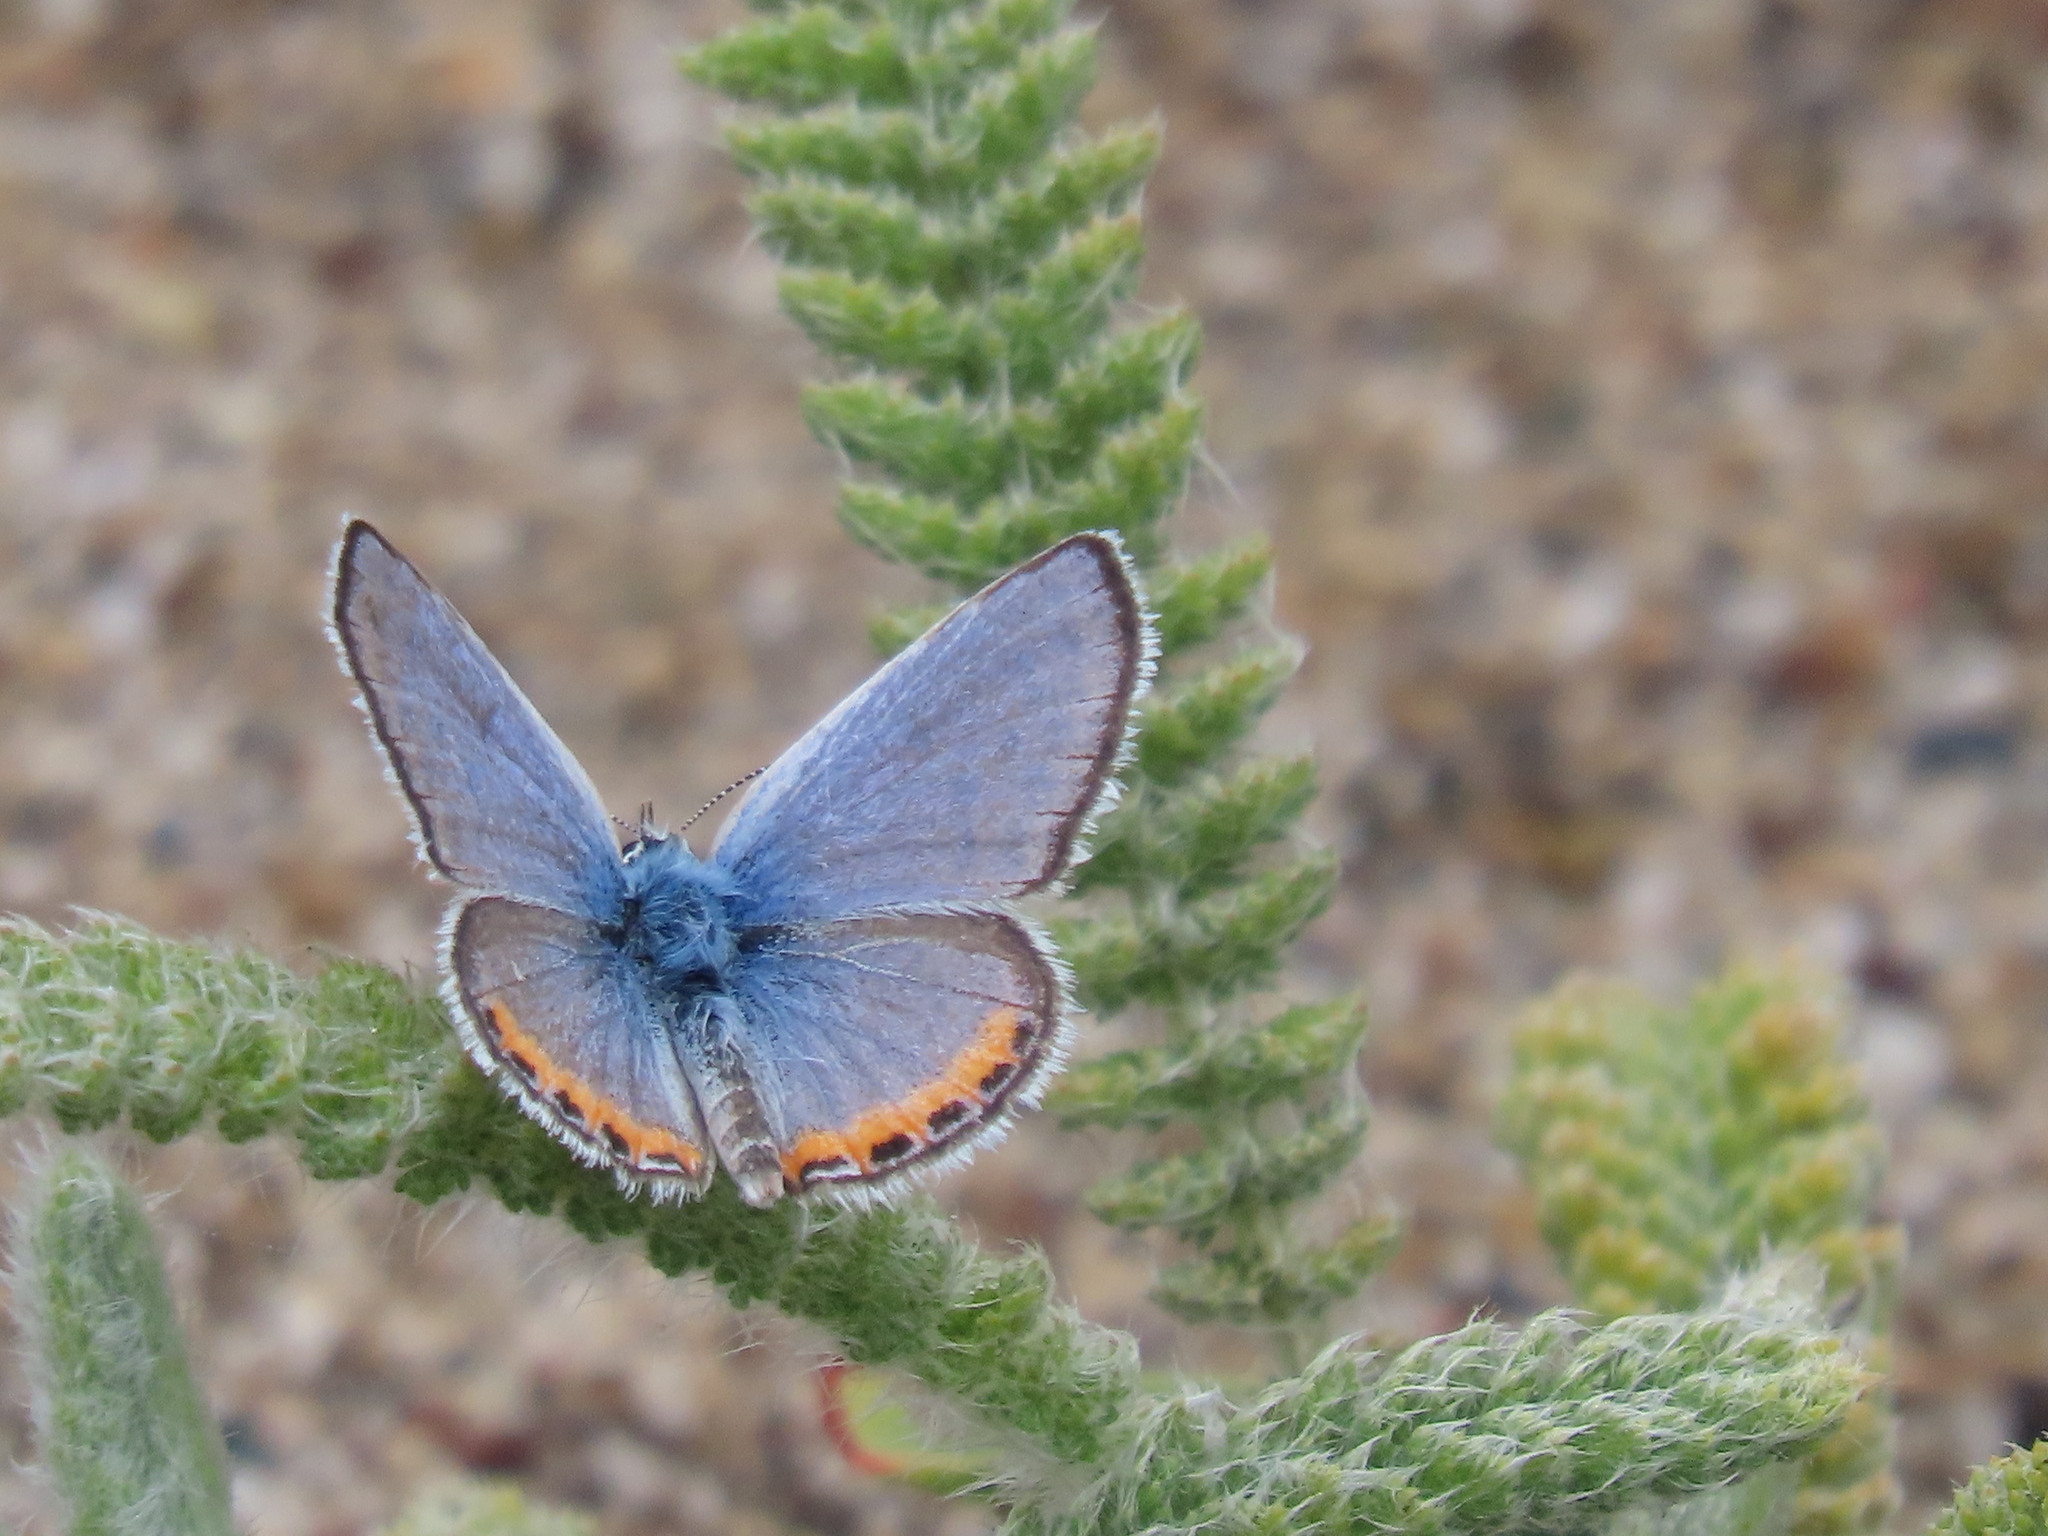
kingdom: Animalia
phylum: Arthropoda
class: Insecta
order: Lepidoptera
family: Lycaenidae
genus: Icaricia
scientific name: Icaricia acmon
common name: Acmon blue
